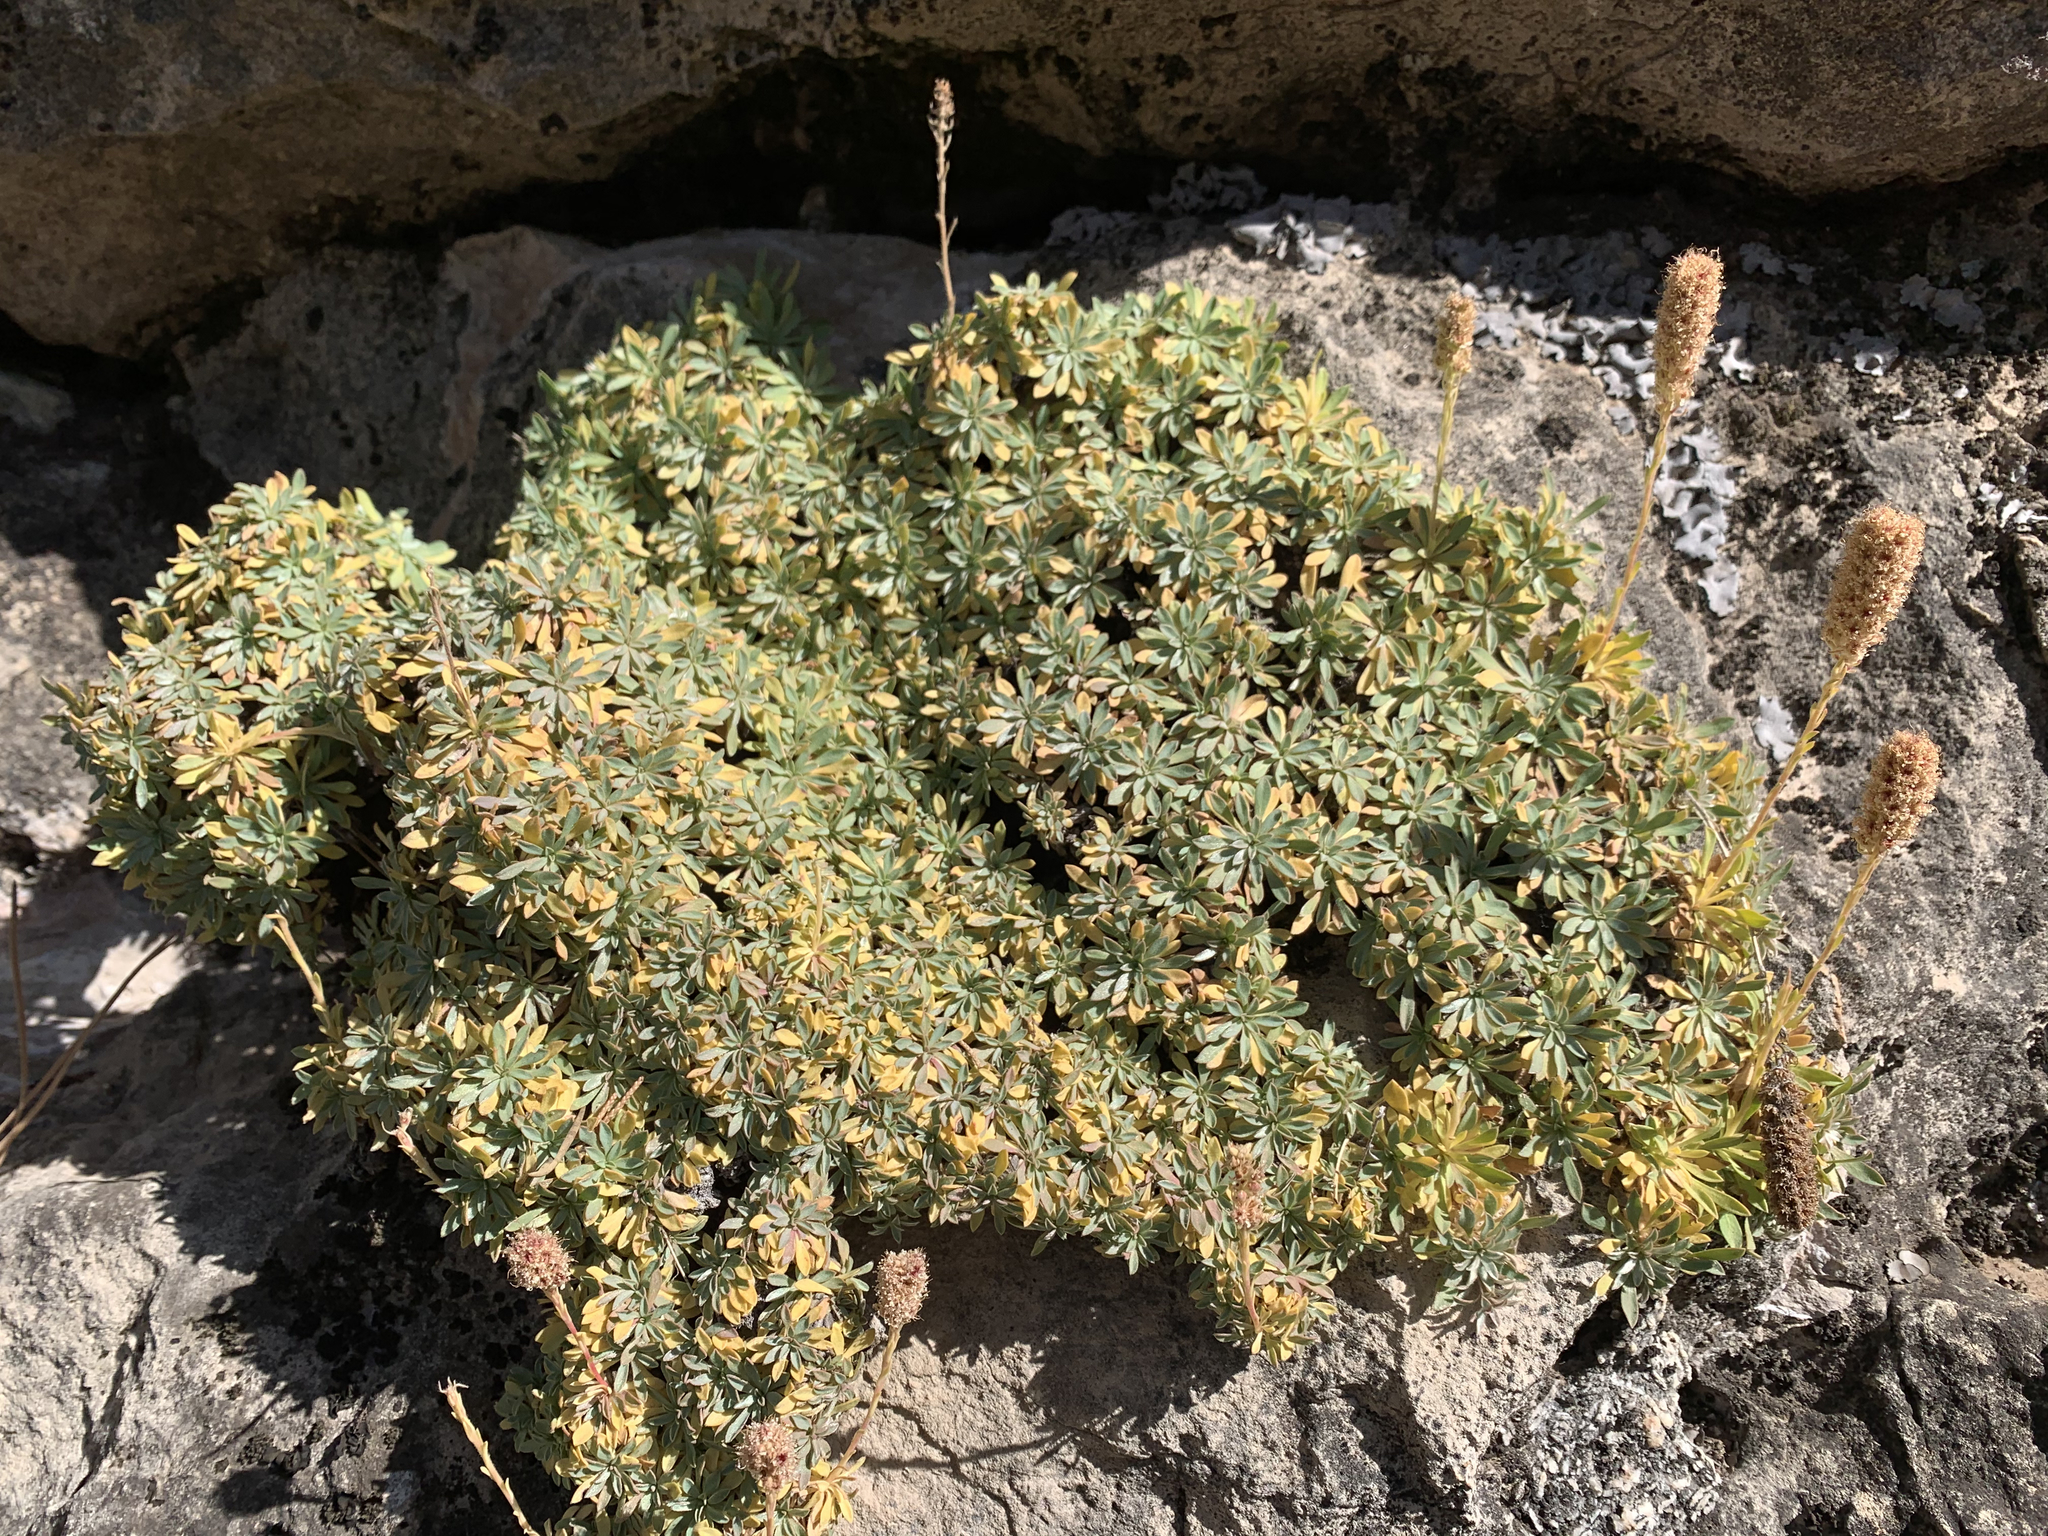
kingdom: Plantae
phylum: Tracheophyta
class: Magnoliopsida
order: Rosales
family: Rosaceae
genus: Petrophytum
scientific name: Petrophytum caespitosum
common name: Mat rockspirea
